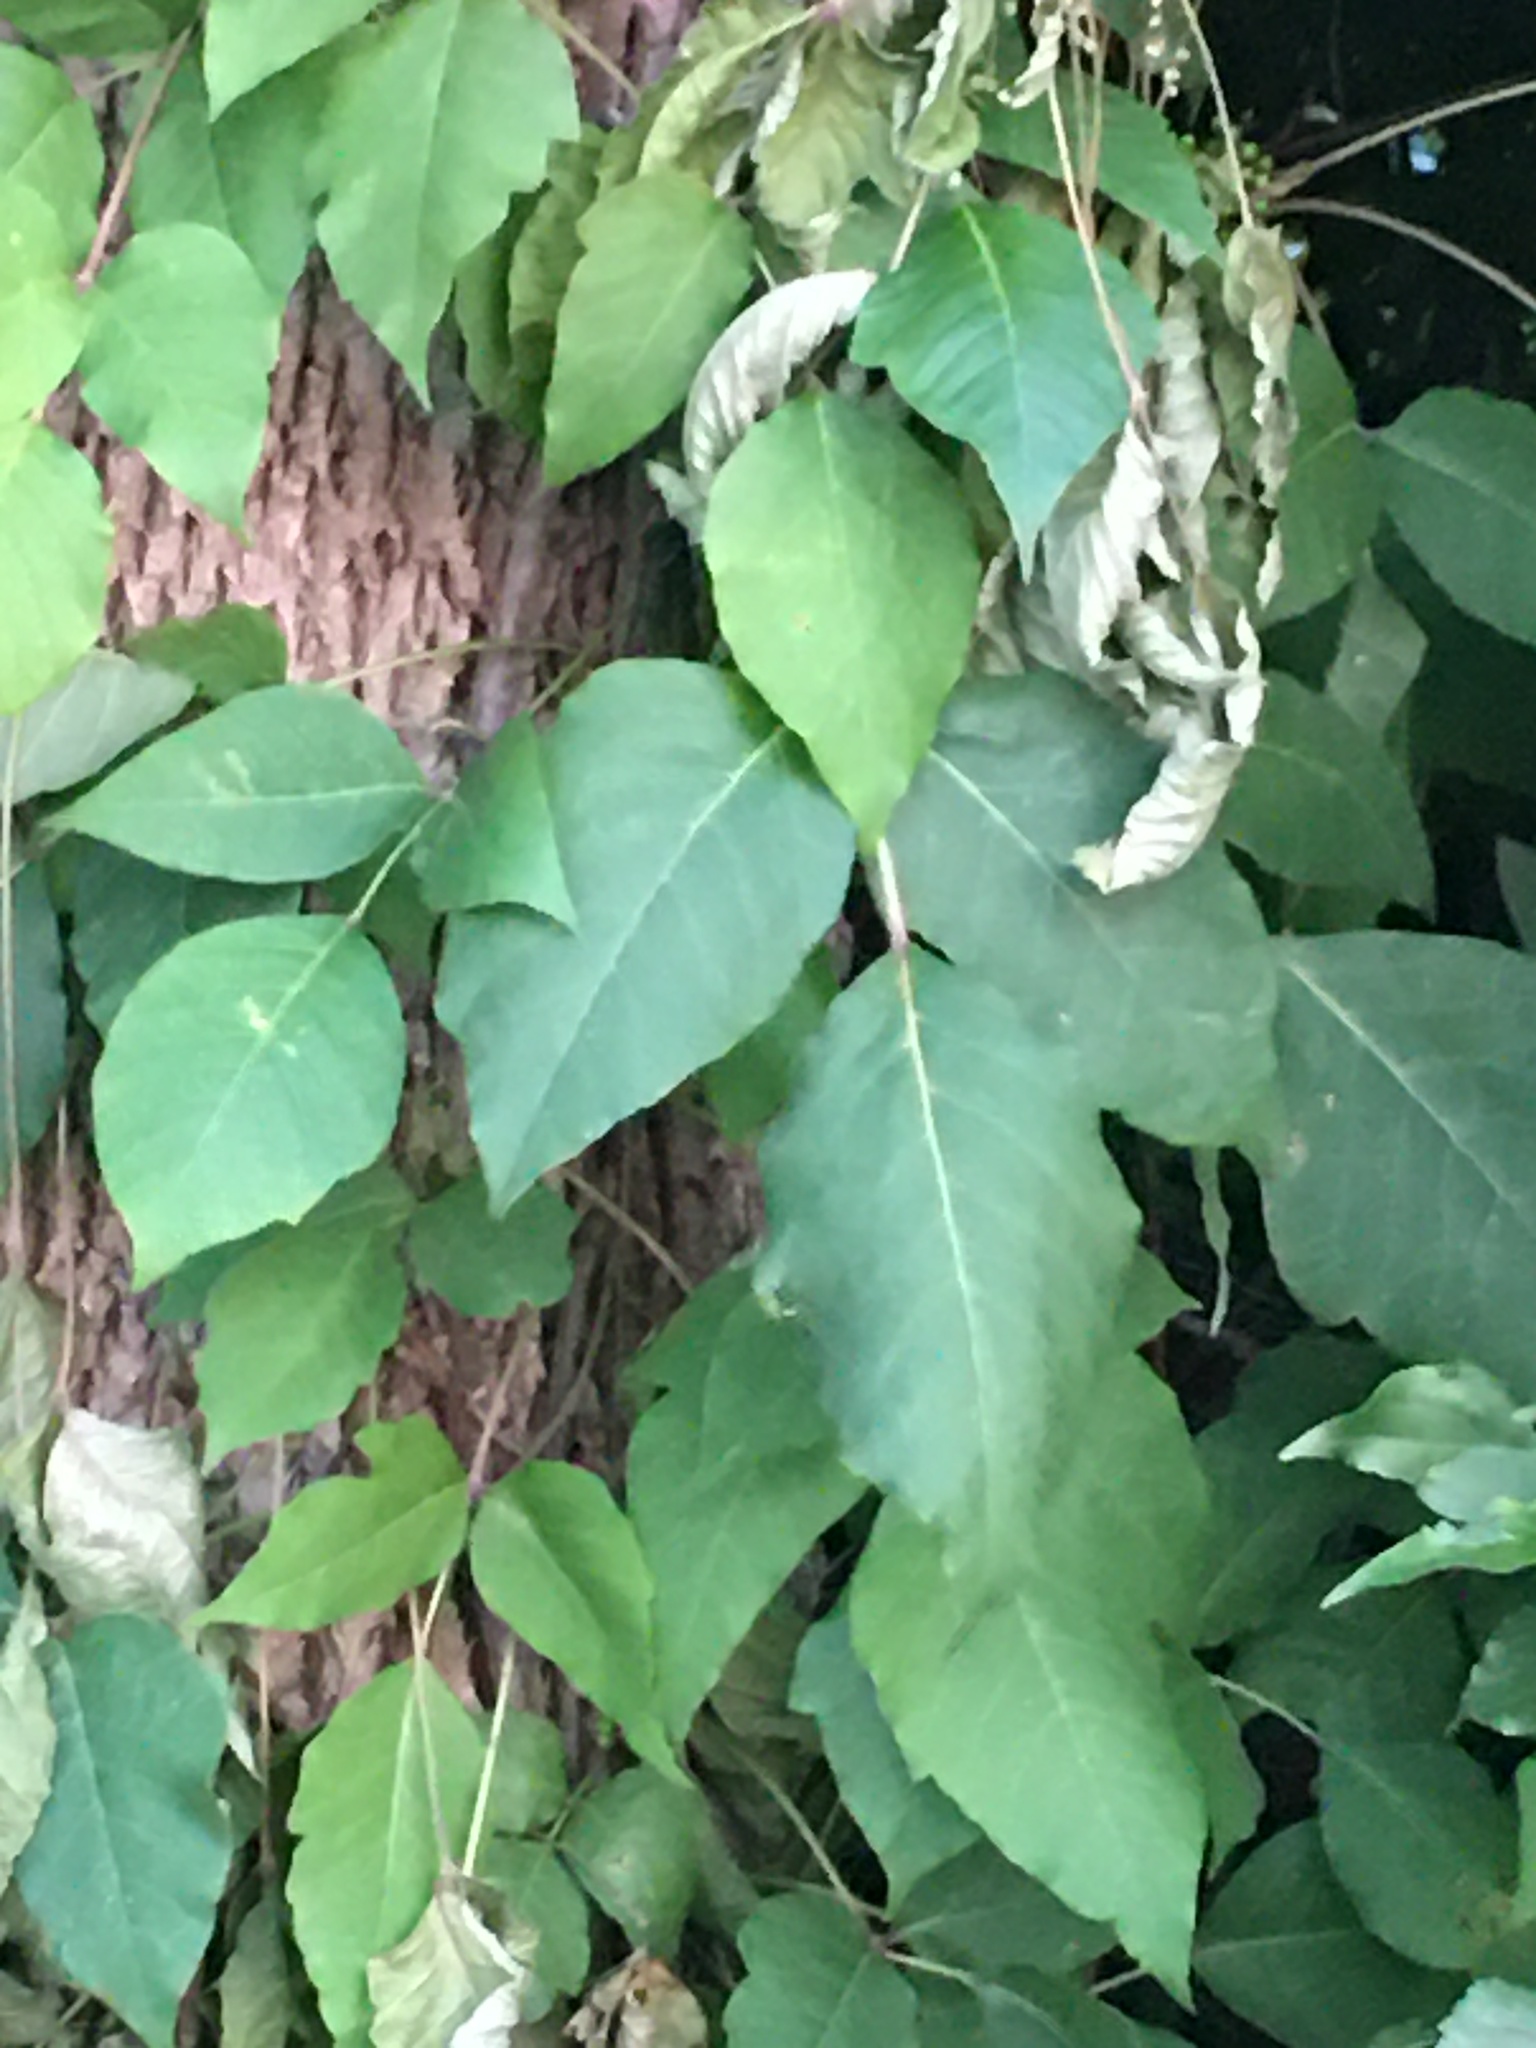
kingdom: Plantae
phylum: Tracheophyta
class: Magnoliopsida
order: Sapindales
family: Anacardiaceae
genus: Toxicodendron
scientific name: Toxicodendron radicans
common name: Poison ivy
